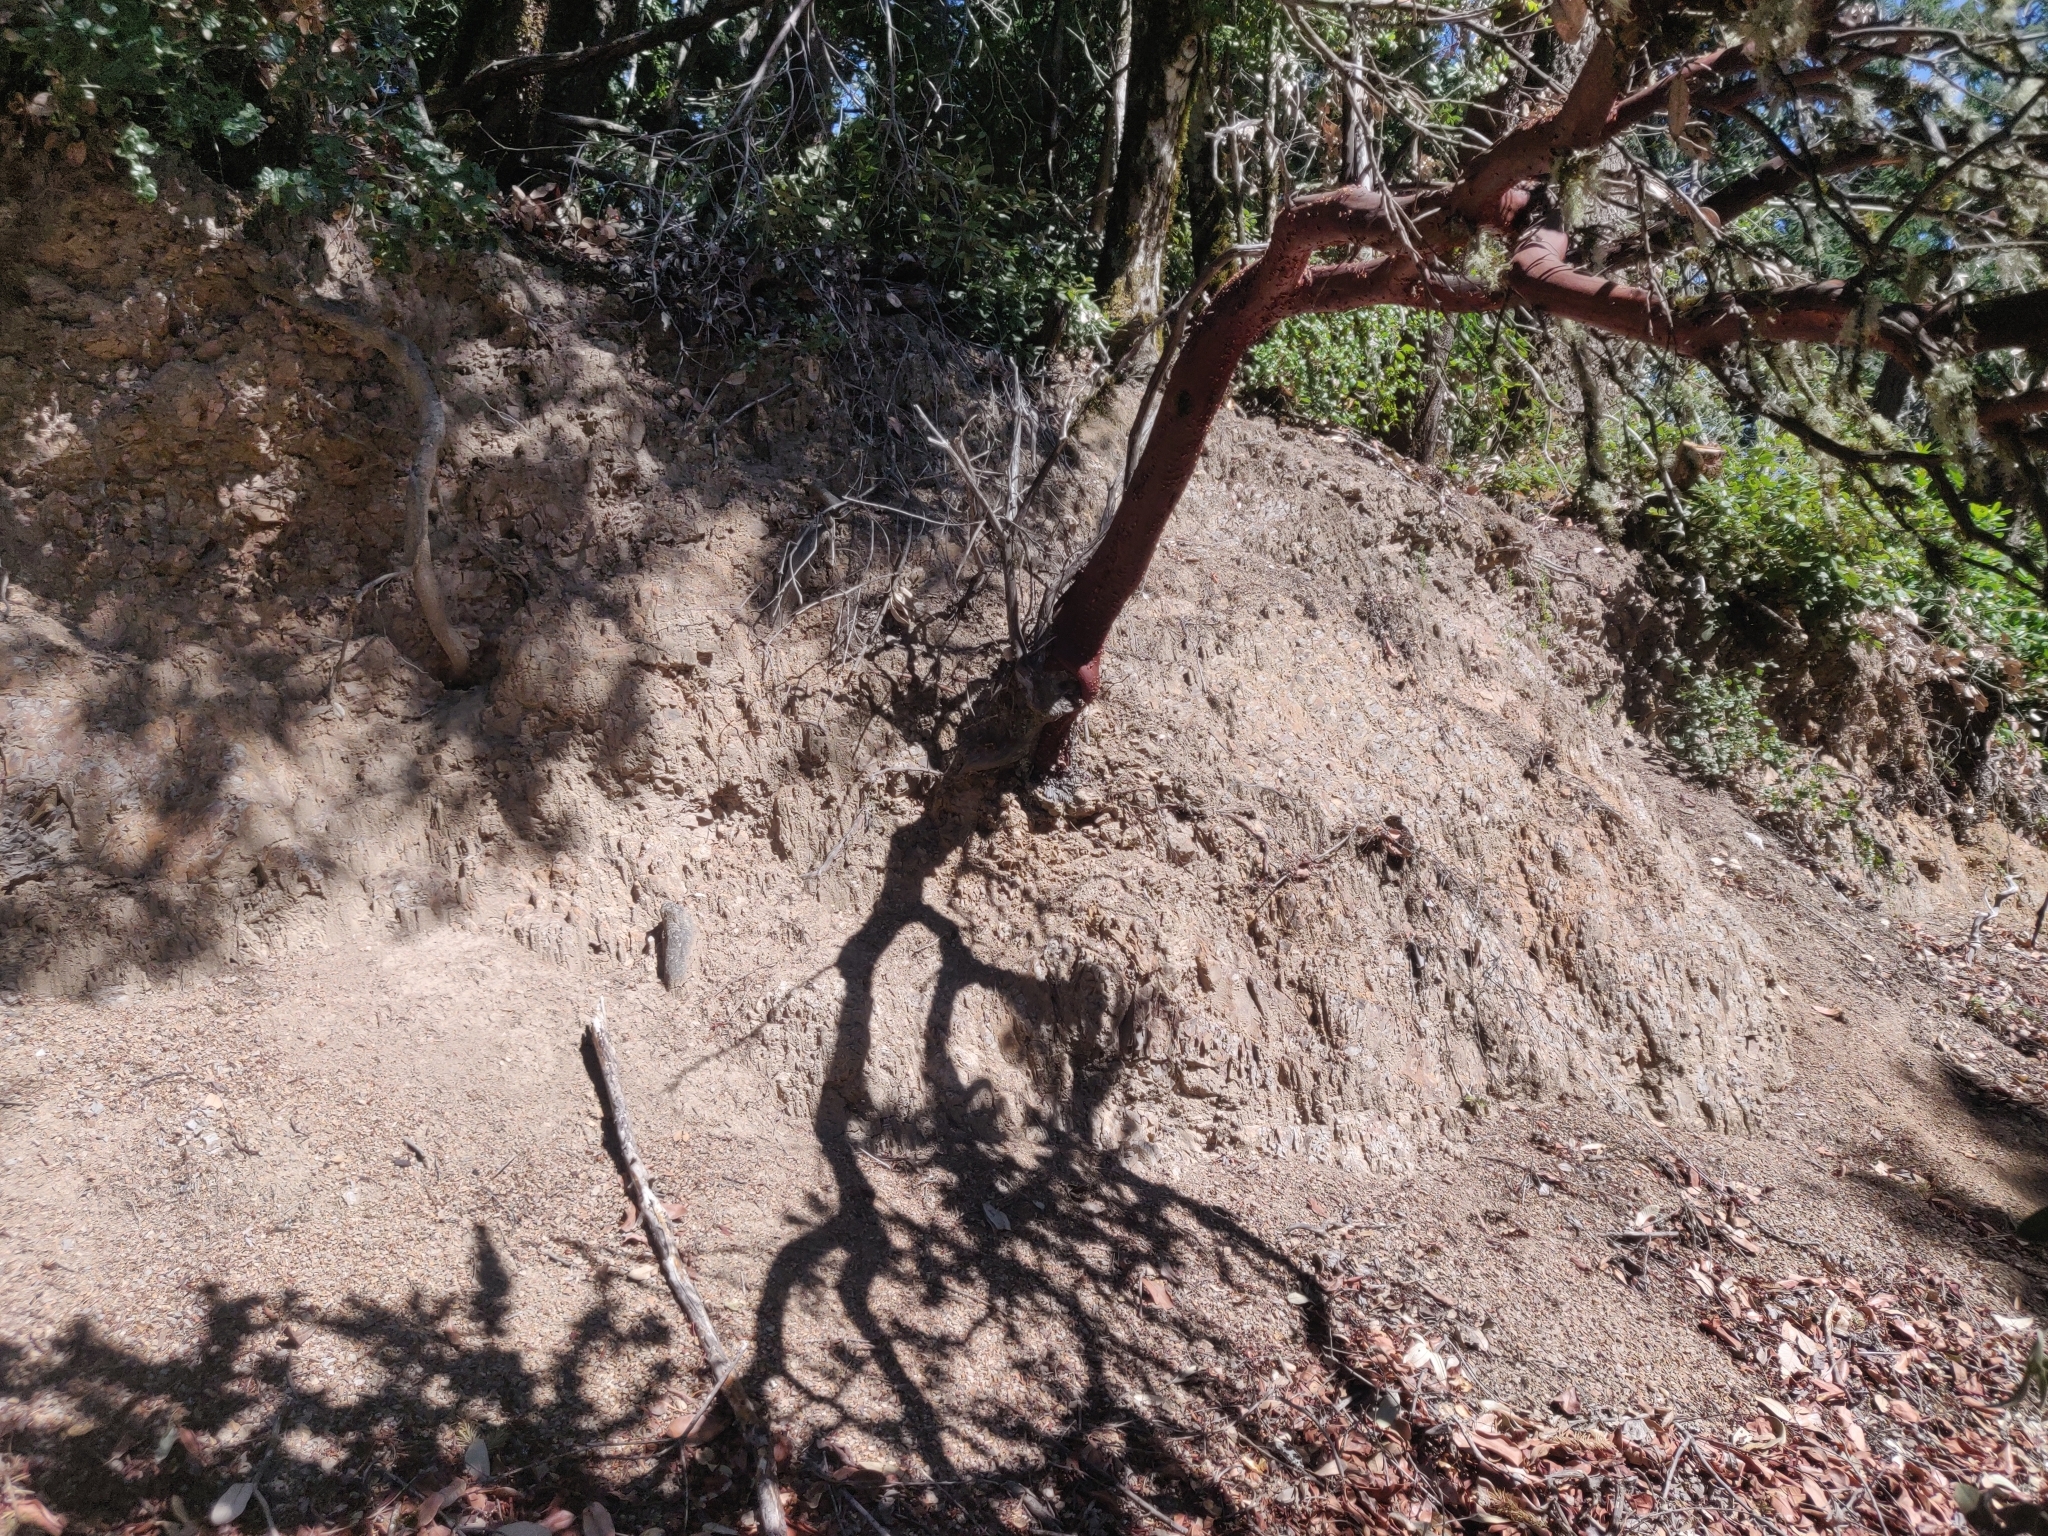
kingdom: Plantae
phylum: Tracheophyta
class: Magnoliopsida
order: Ericales
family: Ericaceae
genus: Arctostaphylos
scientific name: Arctostaphylos regismontana
